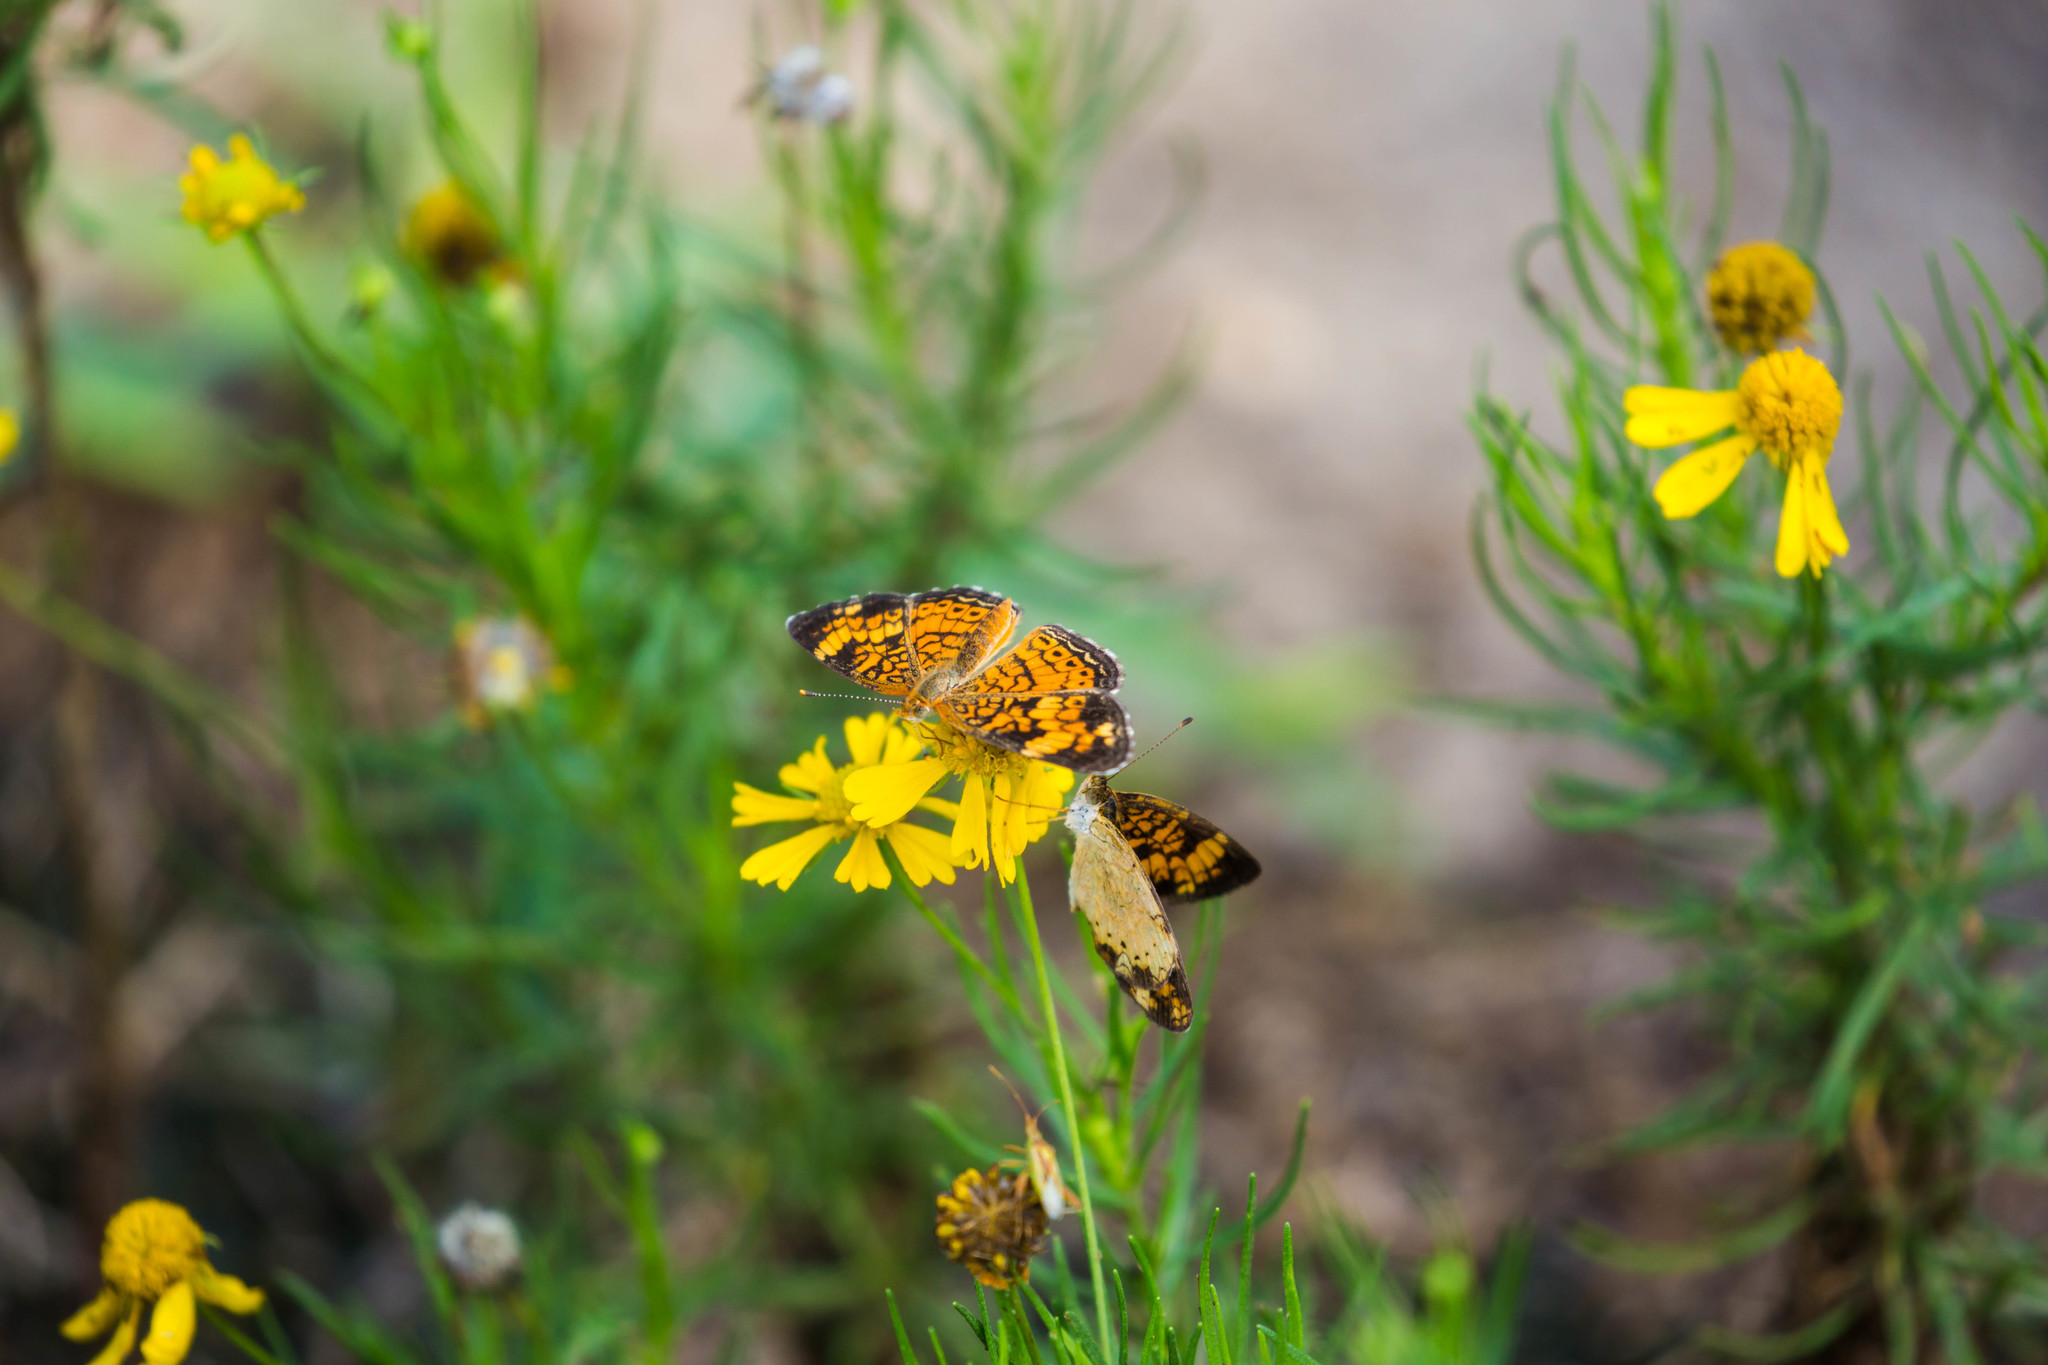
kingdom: Animalia
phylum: Arthropoda
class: Insecta
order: Lepidoptera
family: Nymphalidae
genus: Phyciodes
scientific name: Phyciodes tharos
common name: Pearl crescent
